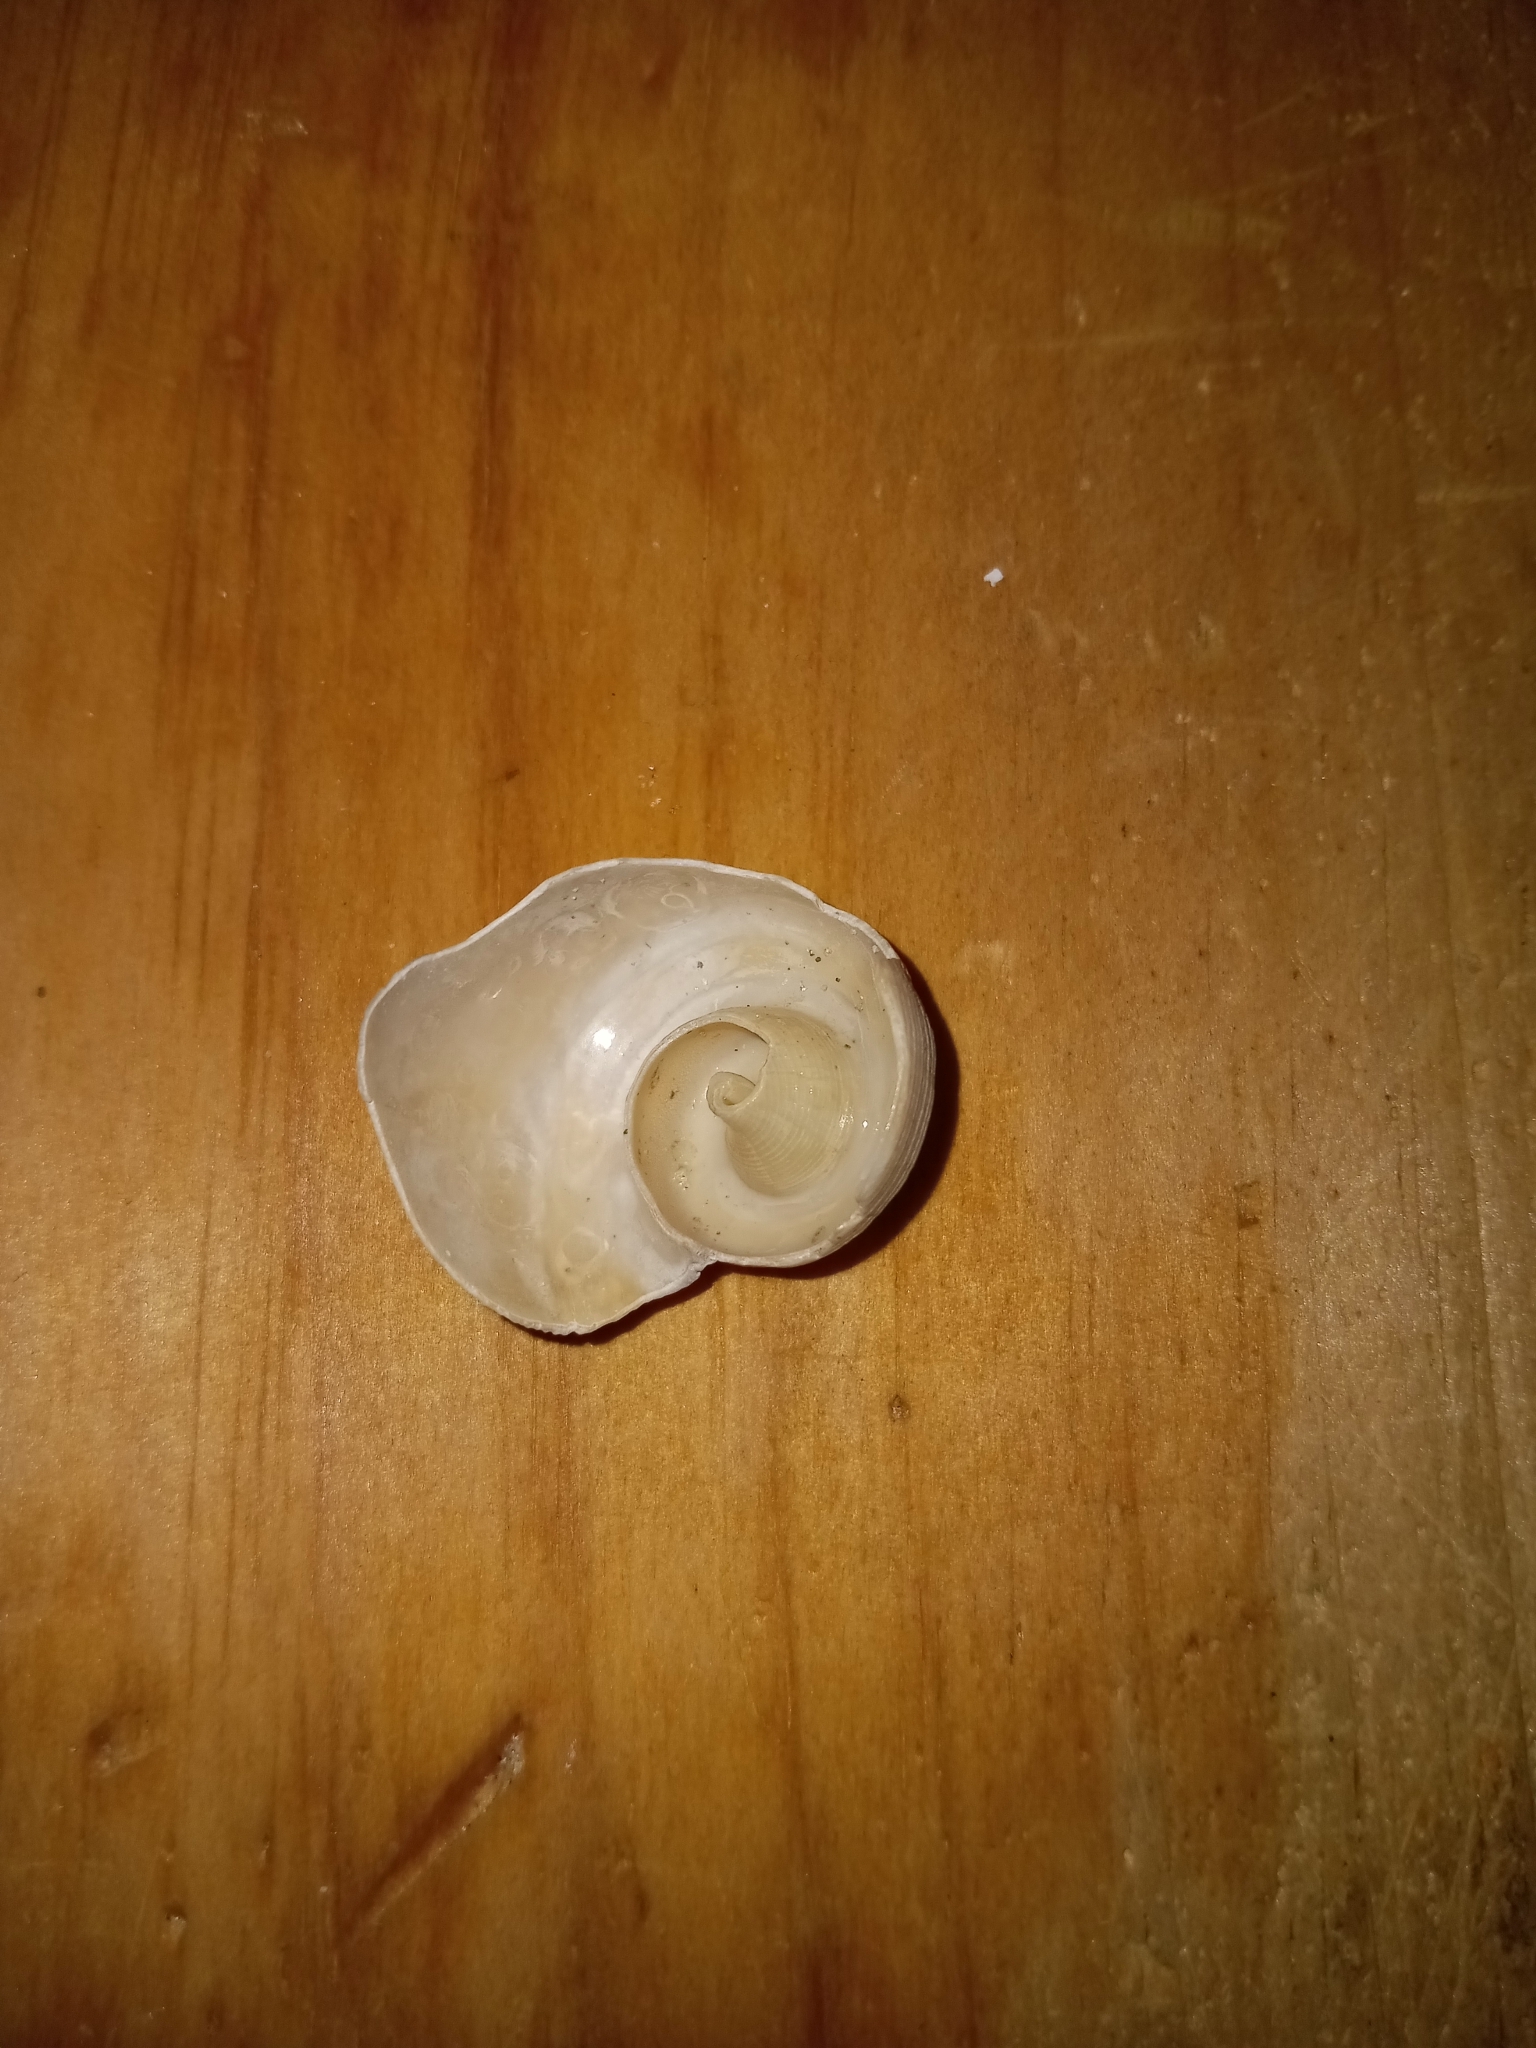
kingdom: Animalia
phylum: Mollusca
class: Gastropoda
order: Neogastropoda
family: Busyconidae
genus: Fulguropsis
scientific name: Fulguropsis pyruloides
